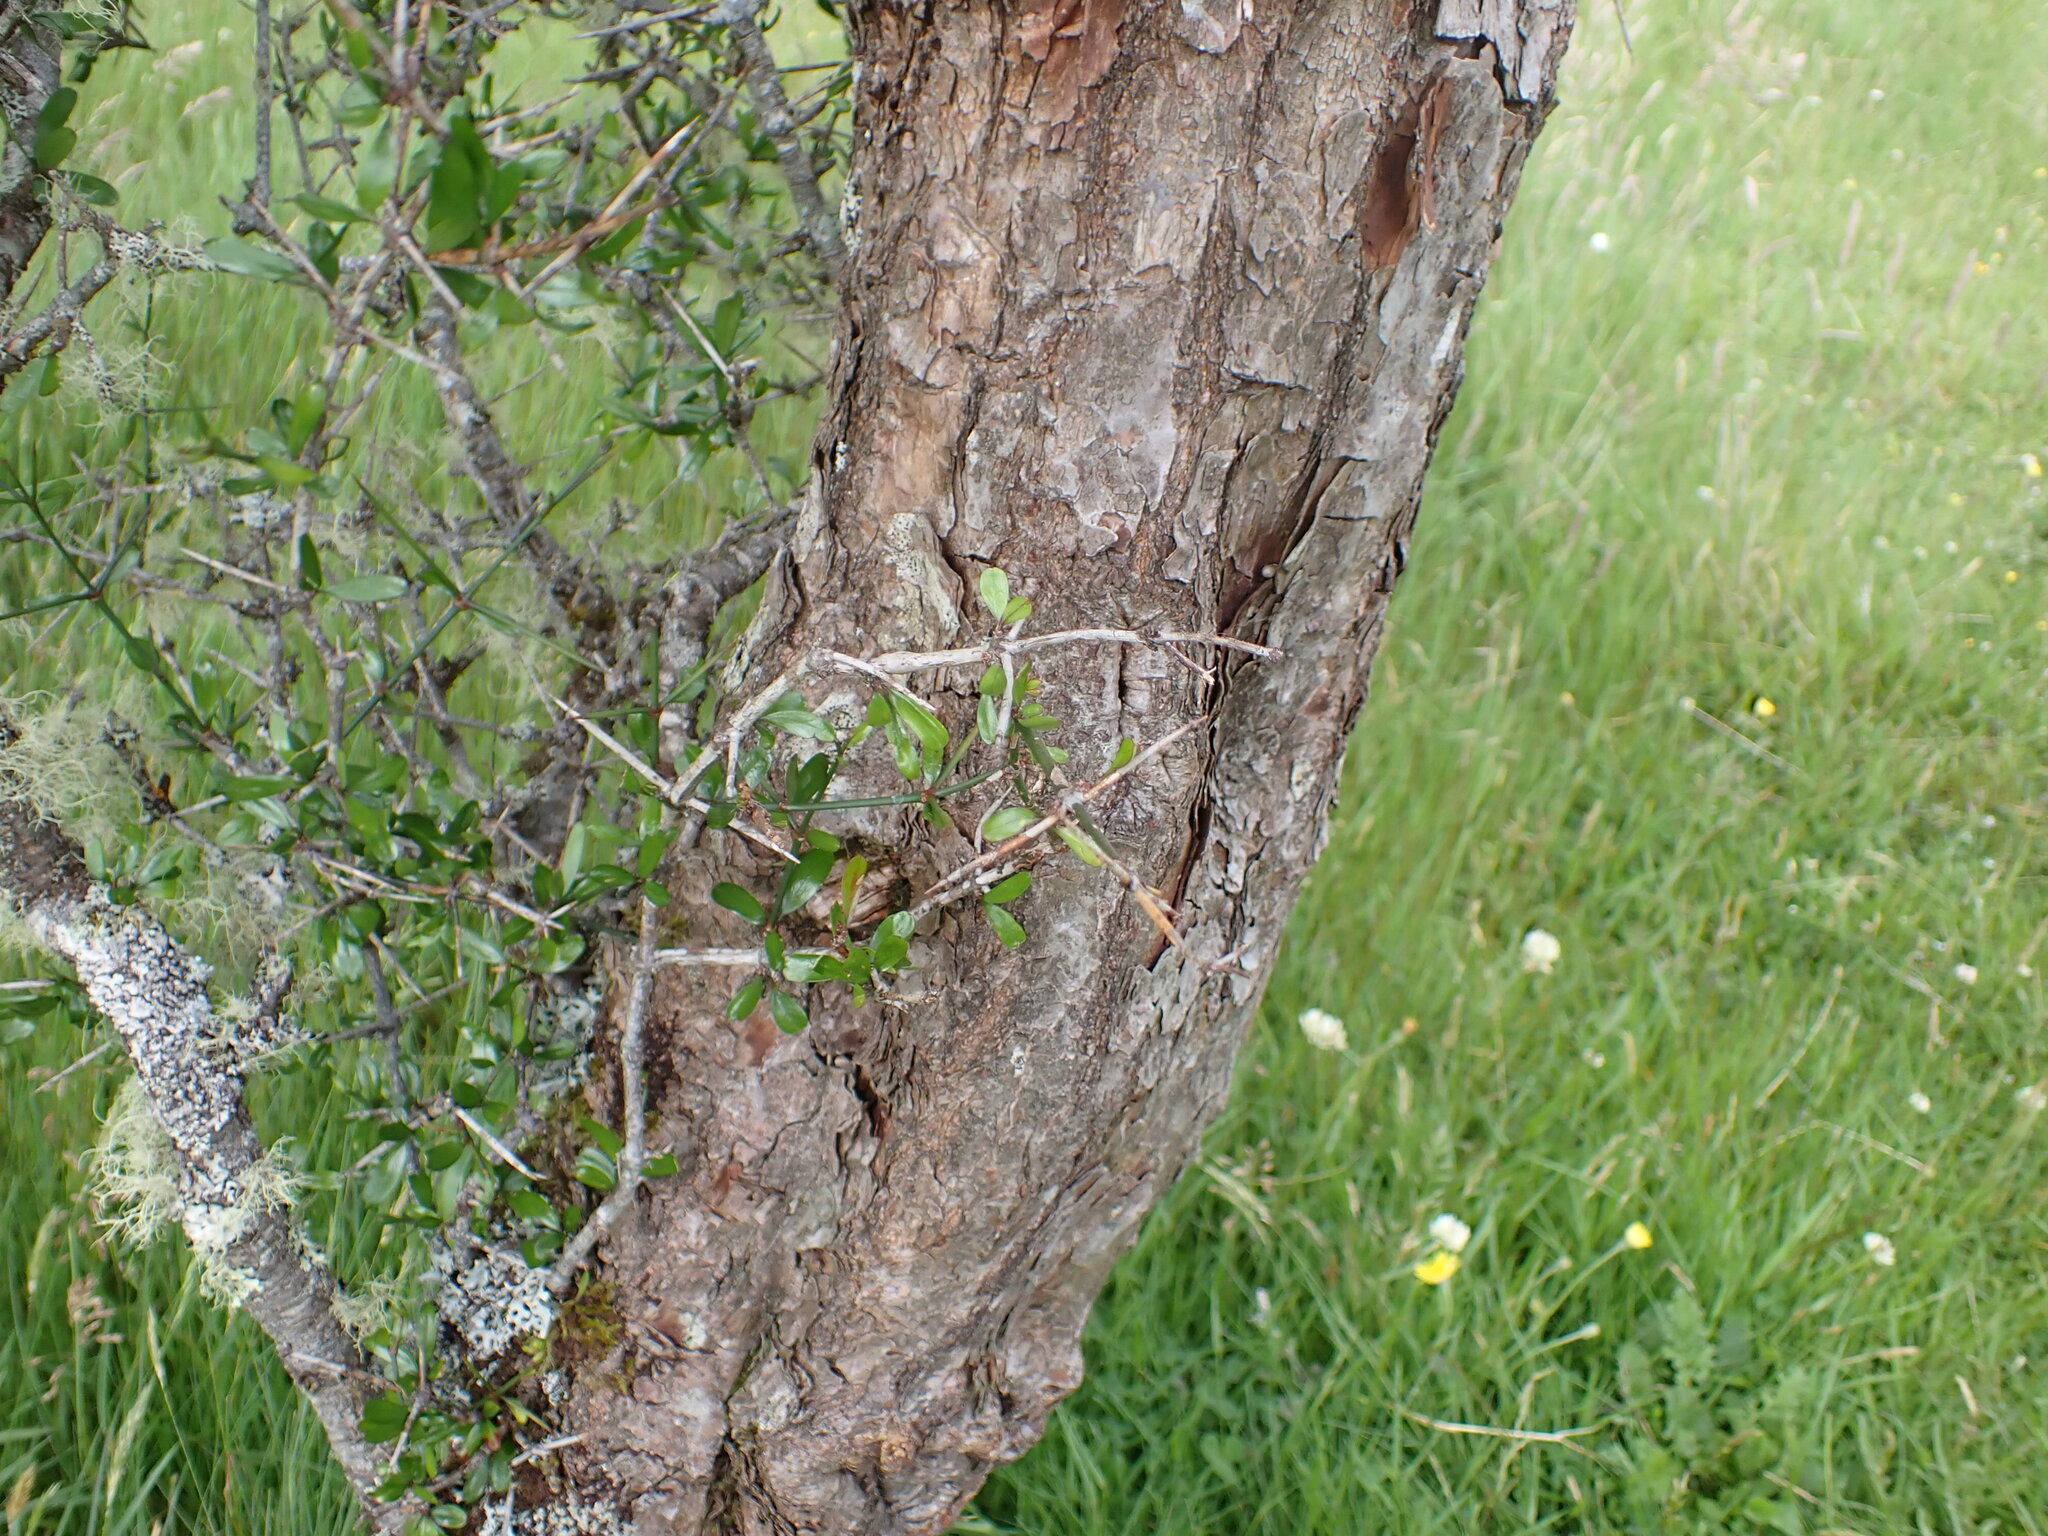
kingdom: Plantae
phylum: Tracheophyta
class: Magnoliopsida
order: Rosales
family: Rhamnaceae
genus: Discaria
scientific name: Discaria toumatou
